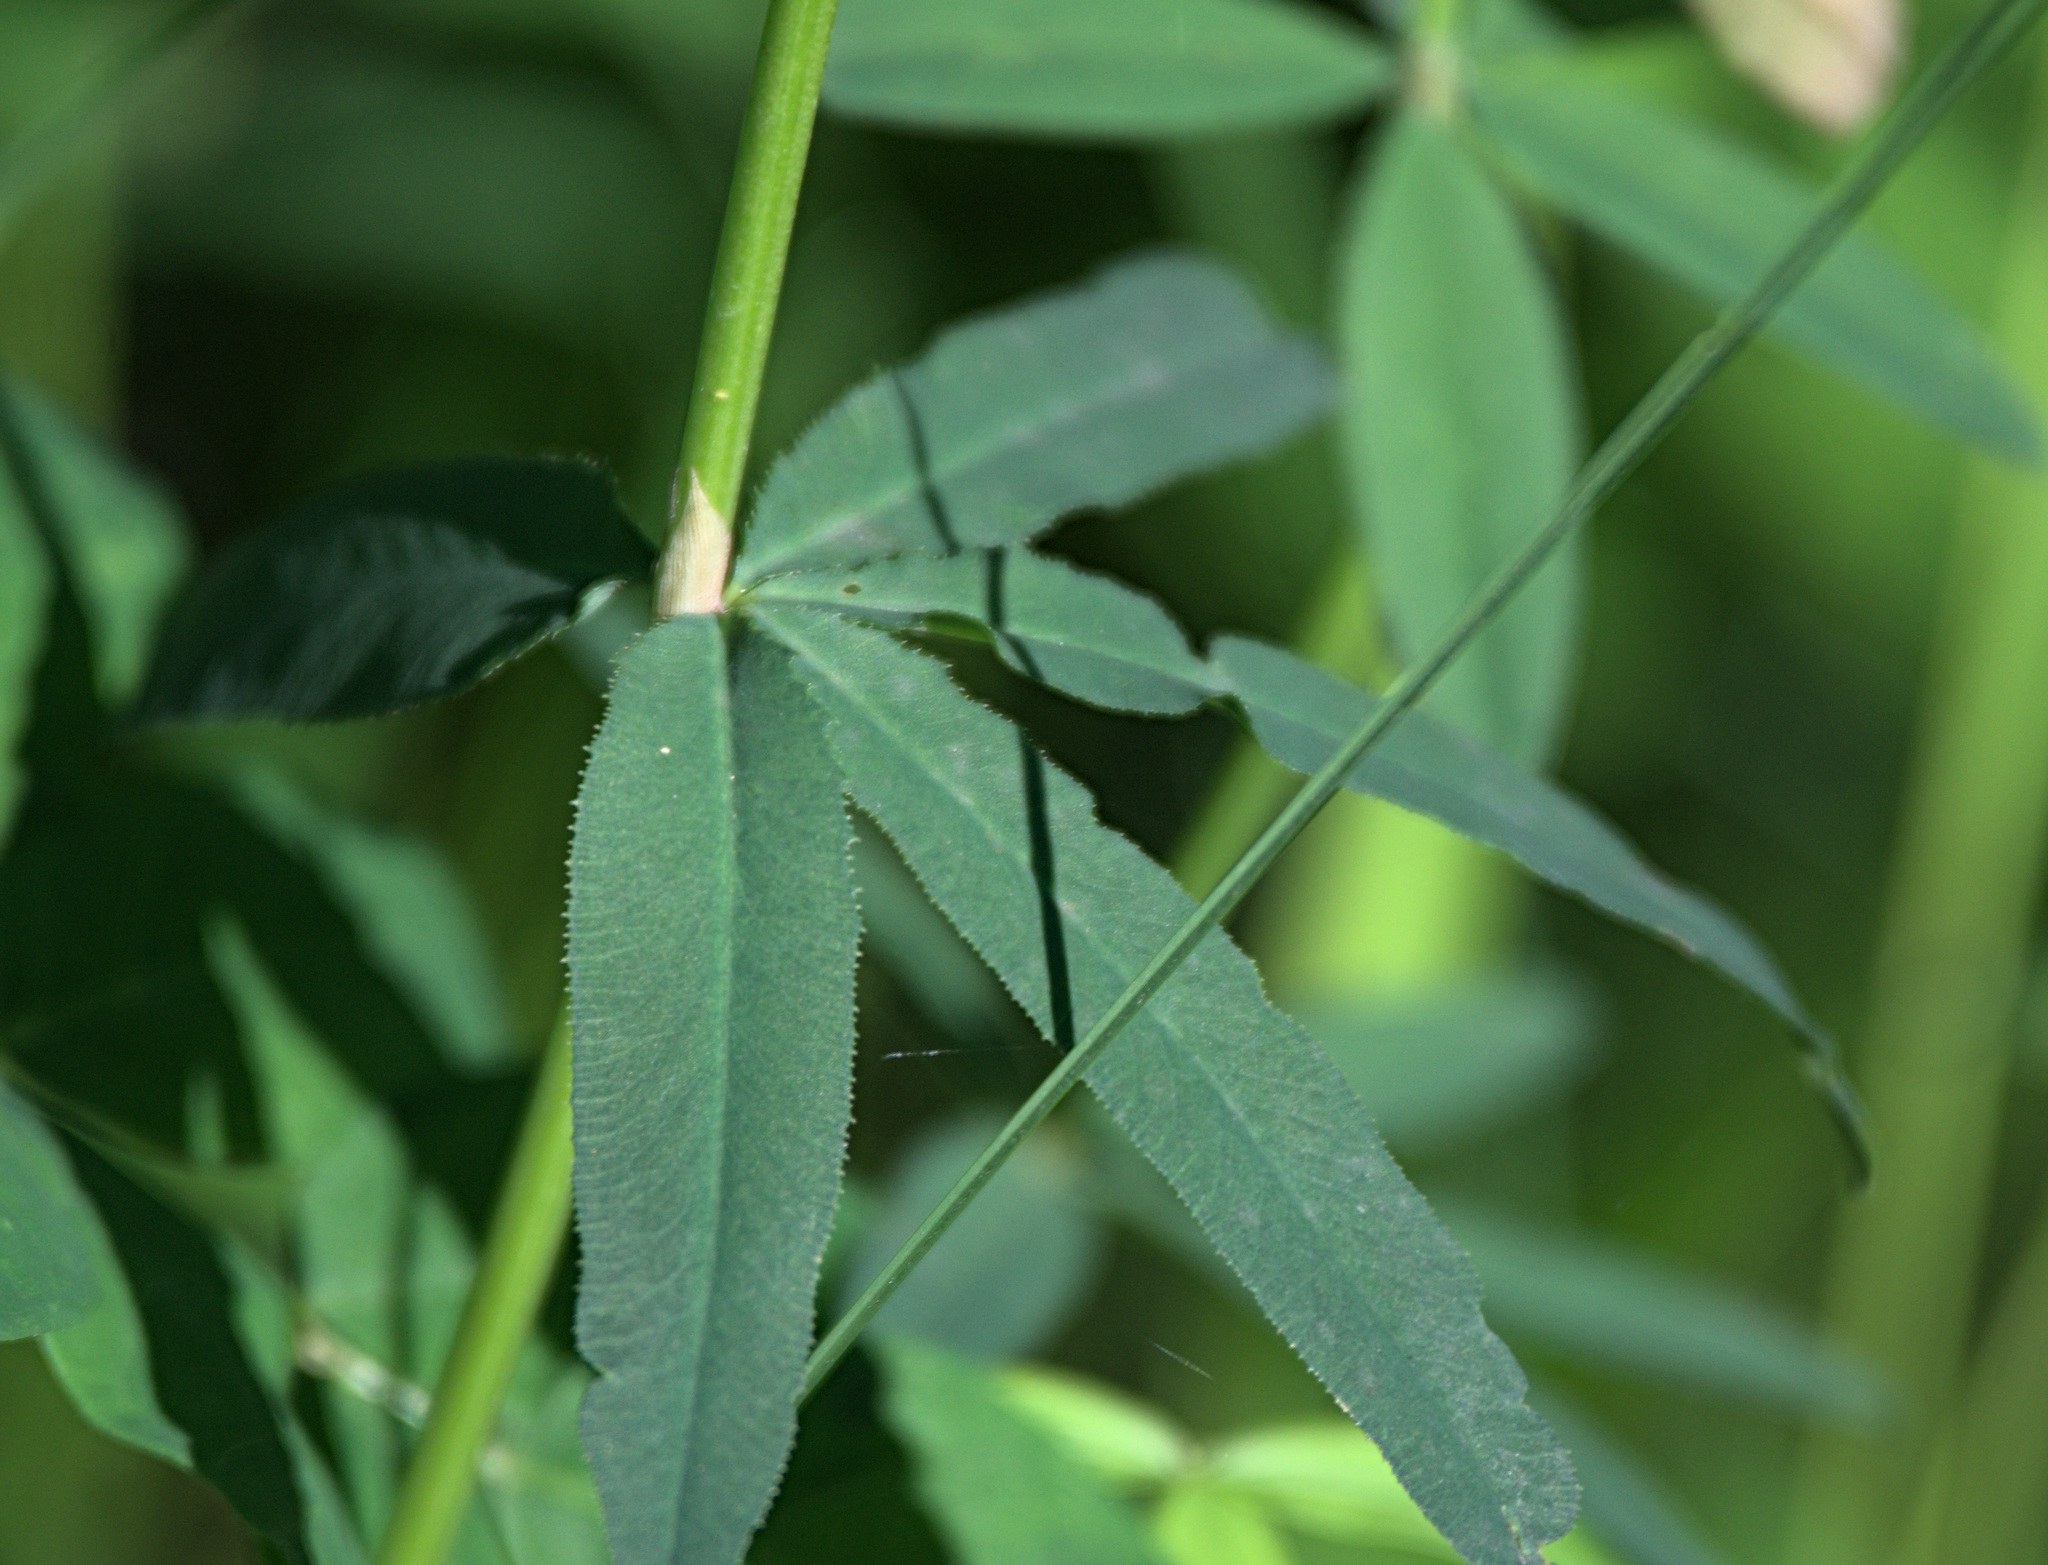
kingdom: Plantae
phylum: Tracheophyta
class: Magnoliopsida
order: Fabales
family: Fabaceae
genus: Trifolium
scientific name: Trifolium lupinaster
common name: Lupine clover
